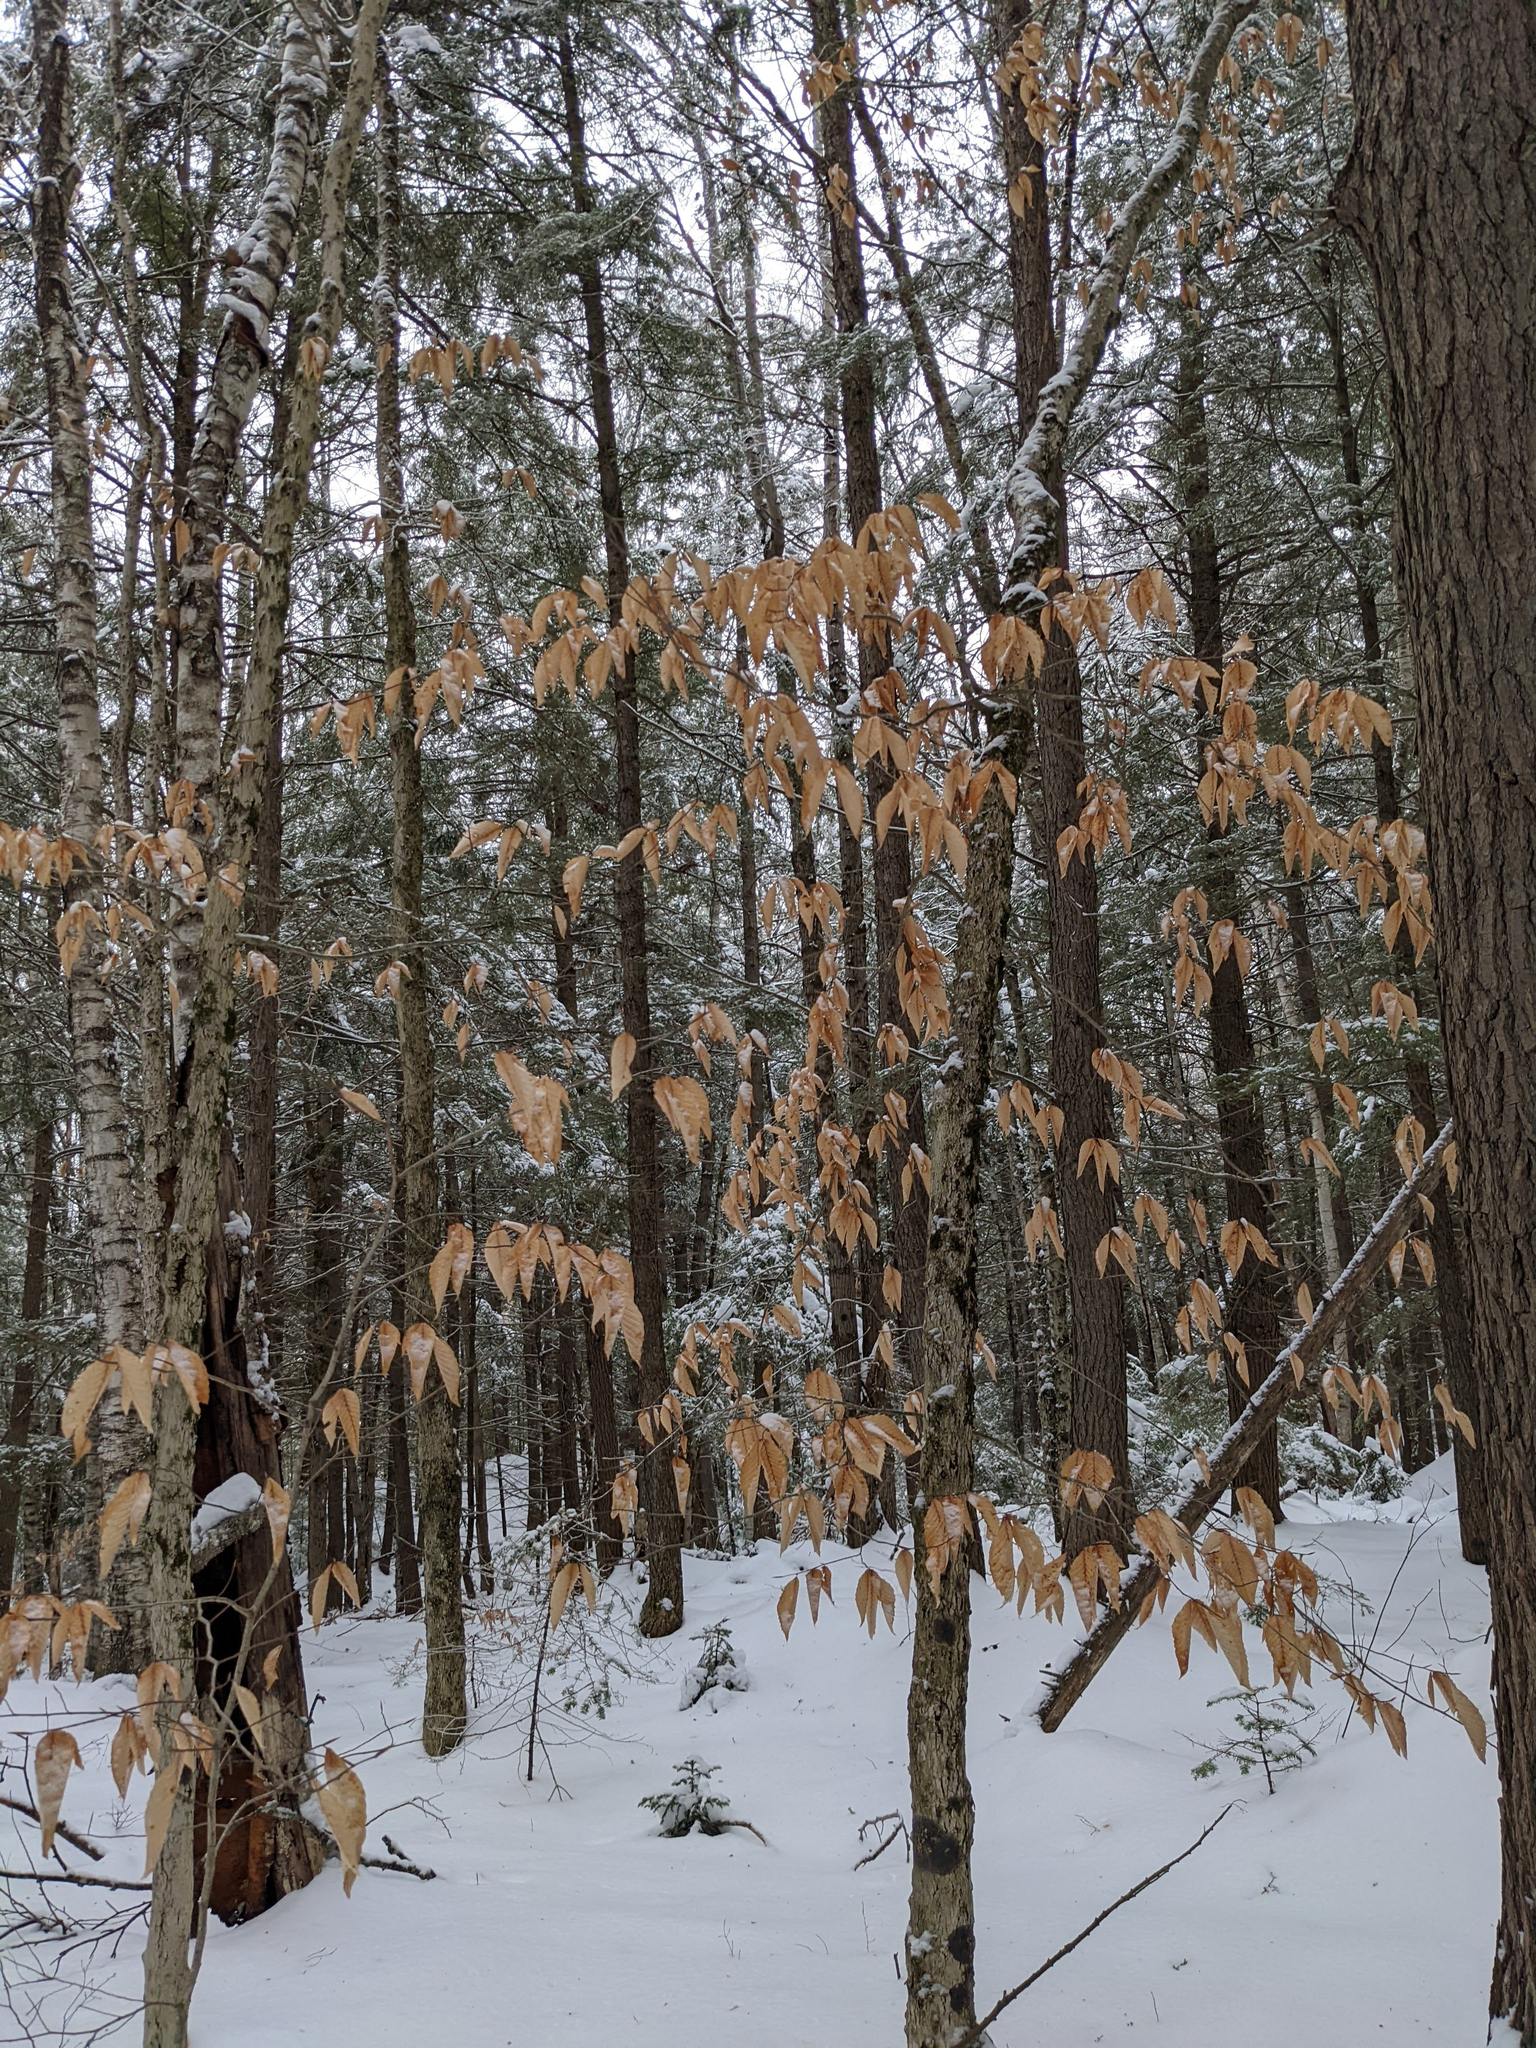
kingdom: Plantae
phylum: Tracheophyta
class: Magnoliopsida
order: Fagales
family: Fagaceae
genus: Fagus
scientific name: Fagus grandifolia
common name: American beech
